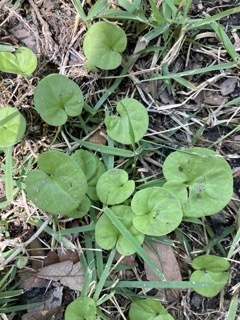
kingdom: Plantae
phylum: Tracheophyta
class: Magnoliopsida
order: Solanales
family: Convolvulaceae
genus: Dichondra
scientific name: Dichondra carolinensis
